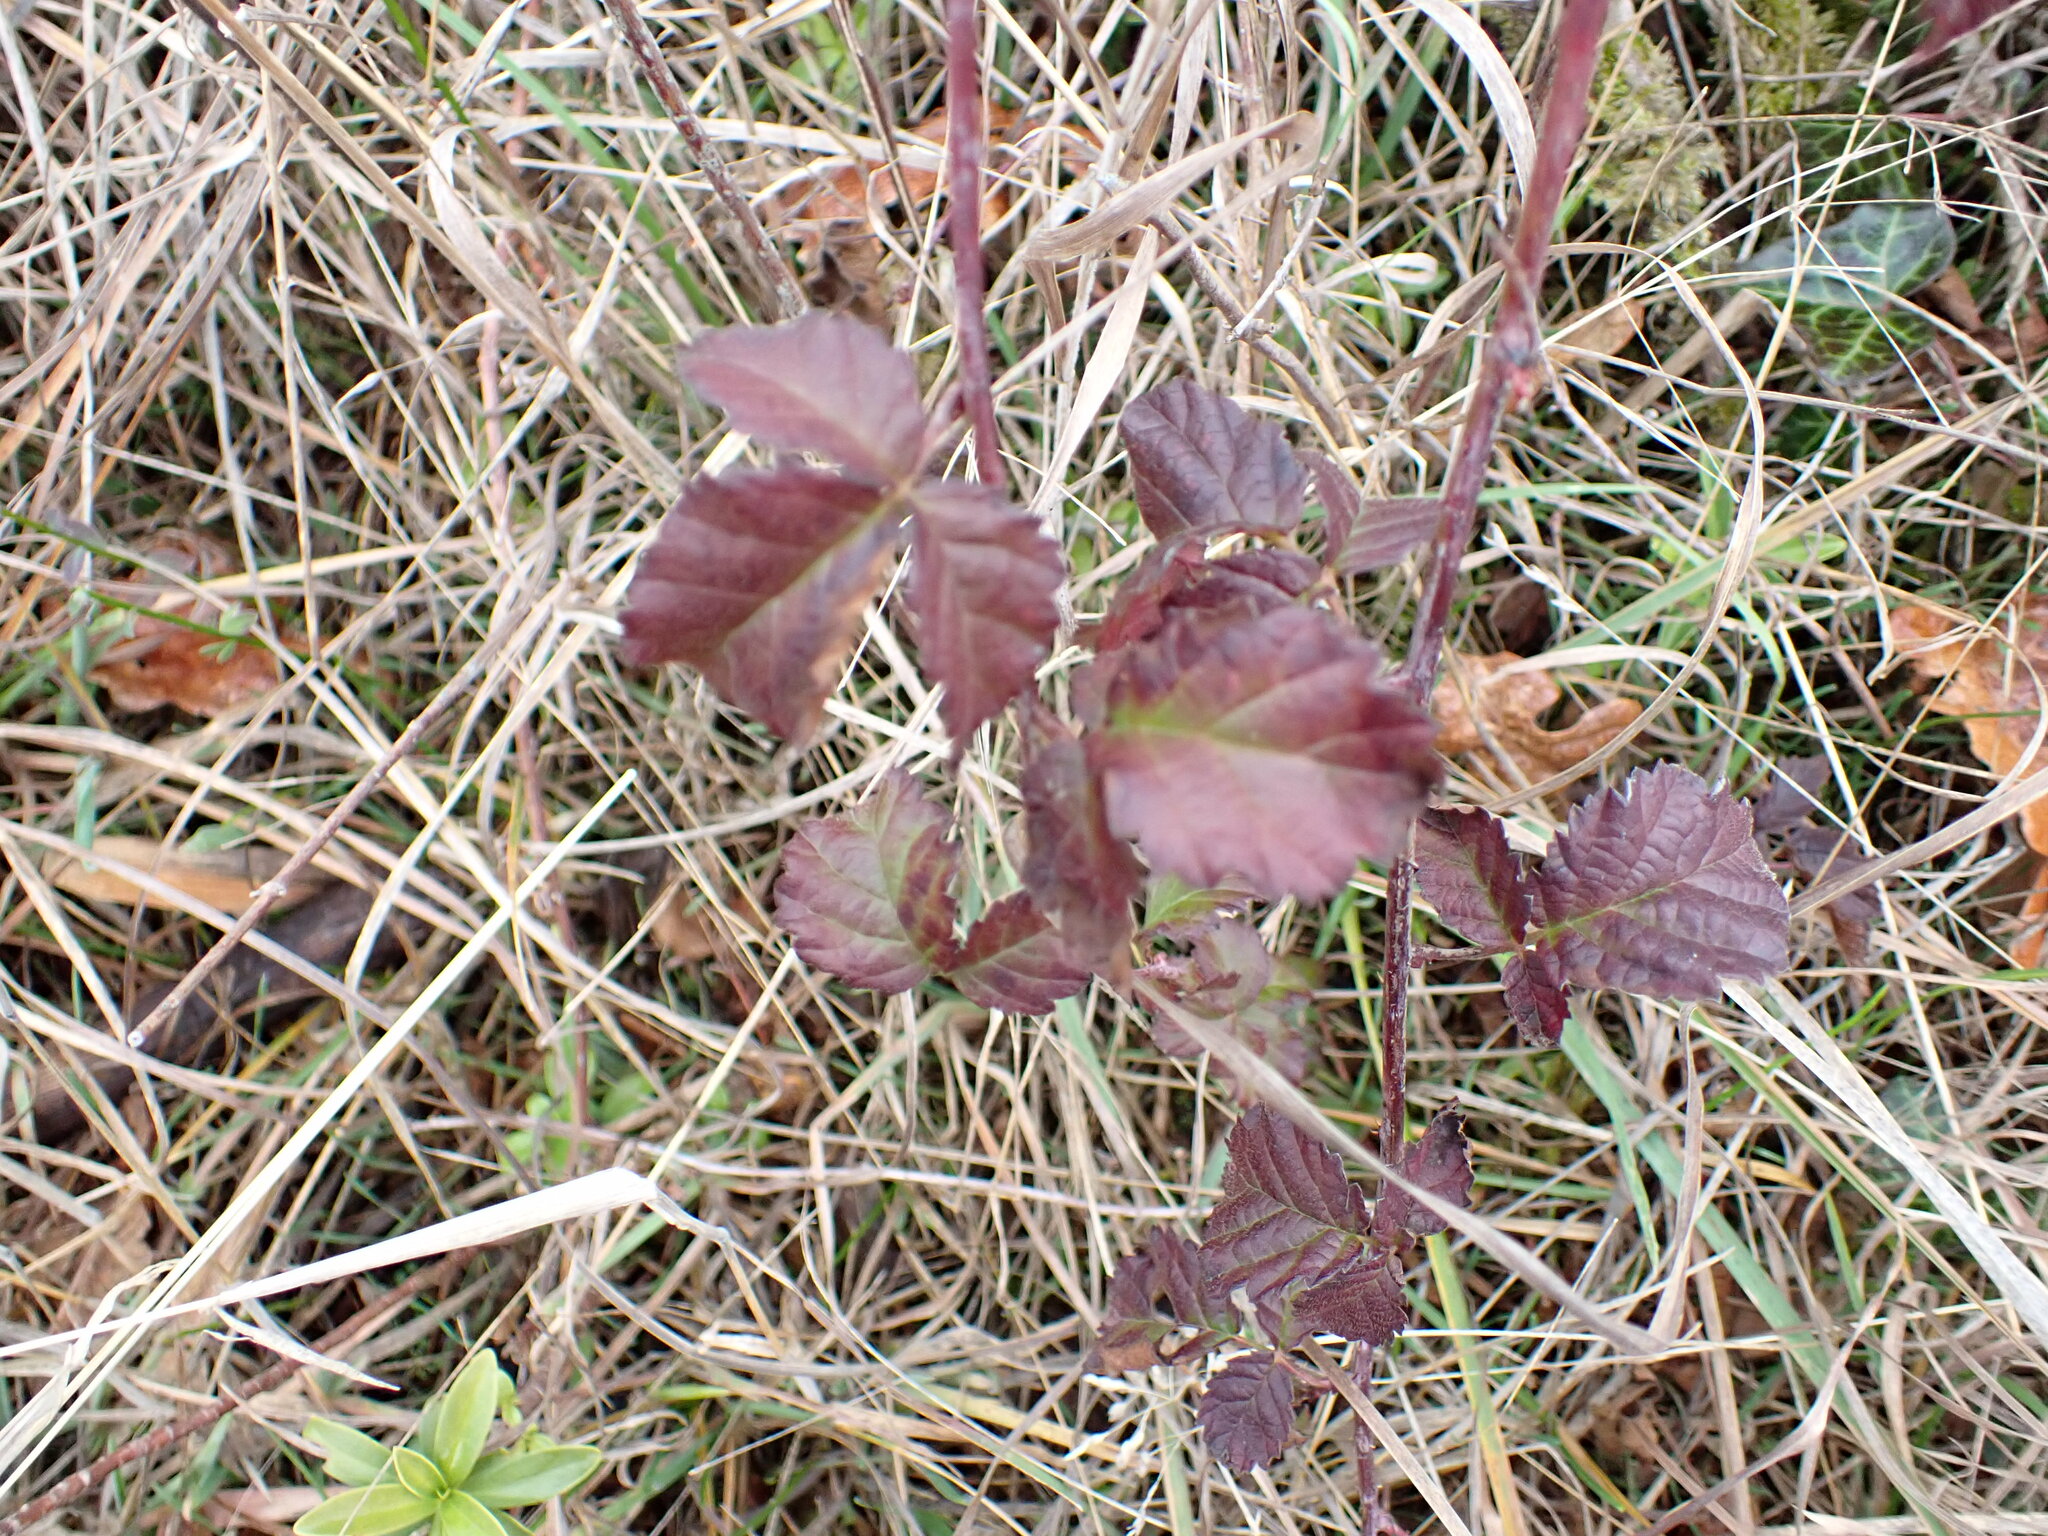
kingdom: Plantae
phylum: Tracheophyta
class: Magnoliopsida
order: Rosales
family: Rosaceae
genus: Rubus
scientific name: Rubus ursinus
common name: Pacific blackberry
